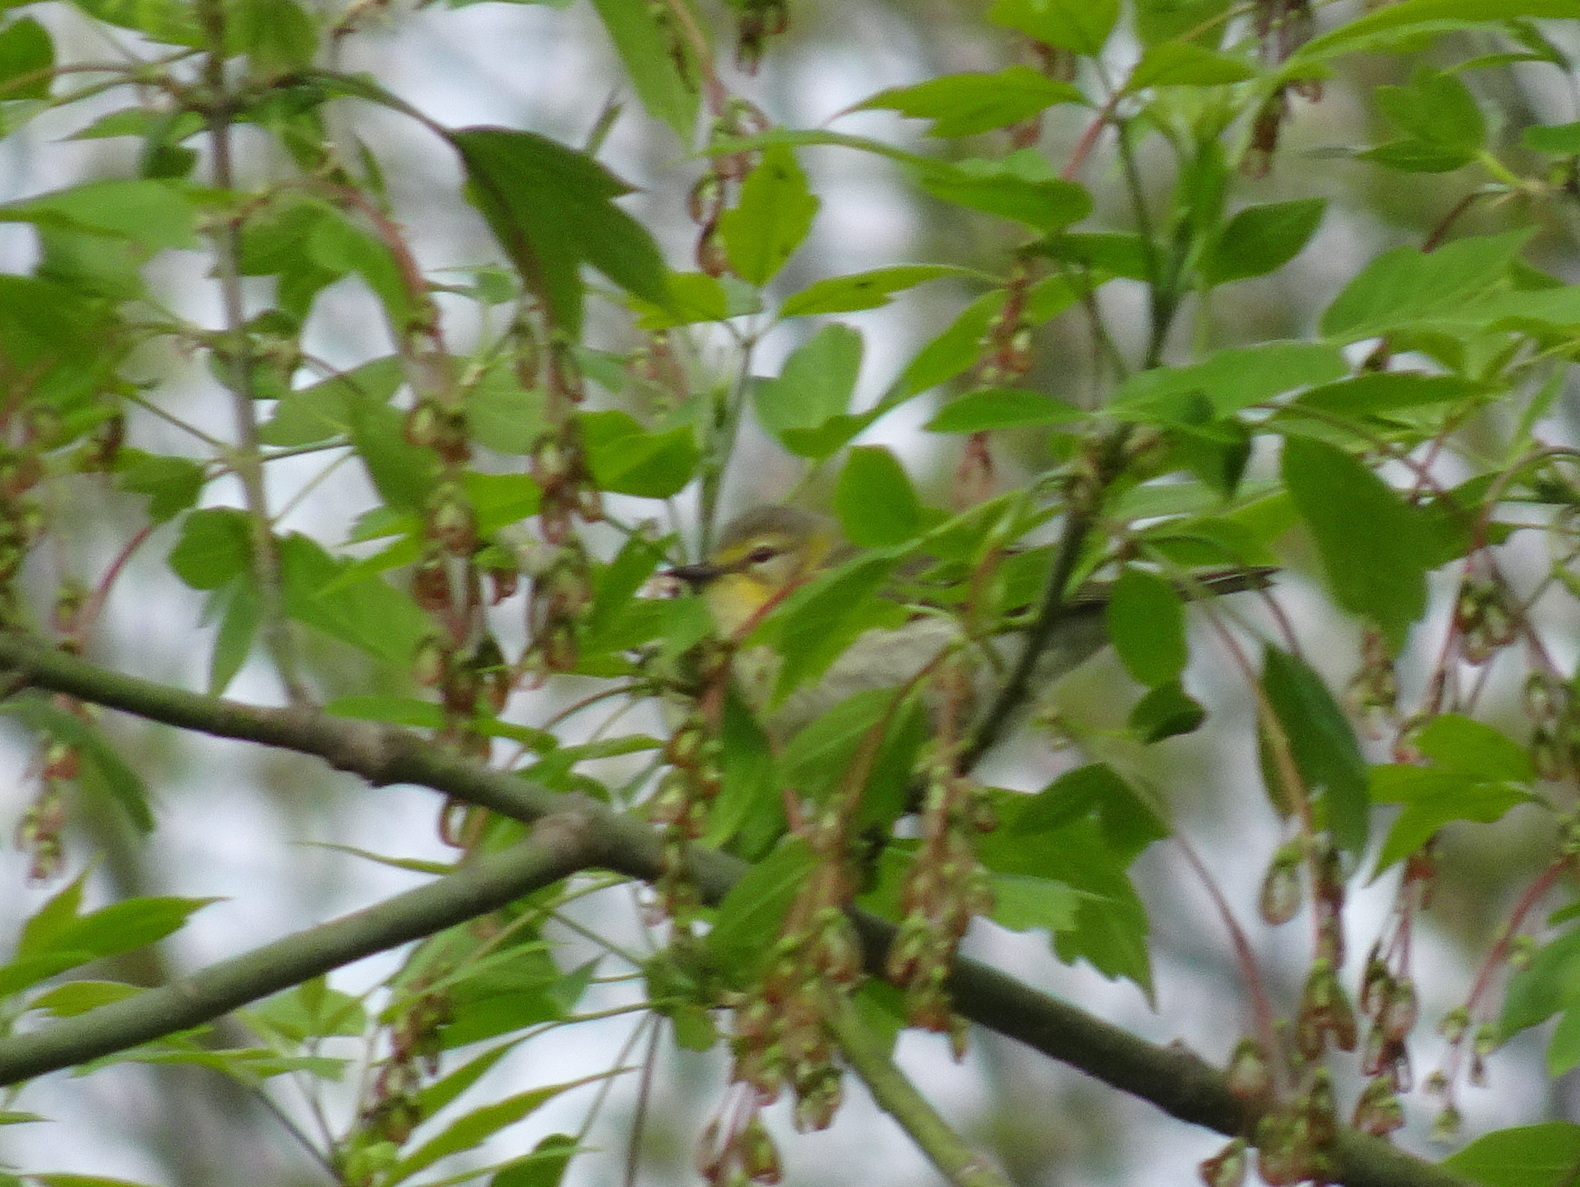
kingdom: Animalia
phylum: Chordata
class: Aves
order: Passeriformes
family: Parulidae
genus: Setophaga
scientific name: Setophaga tigrina
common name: Cape may warbler
